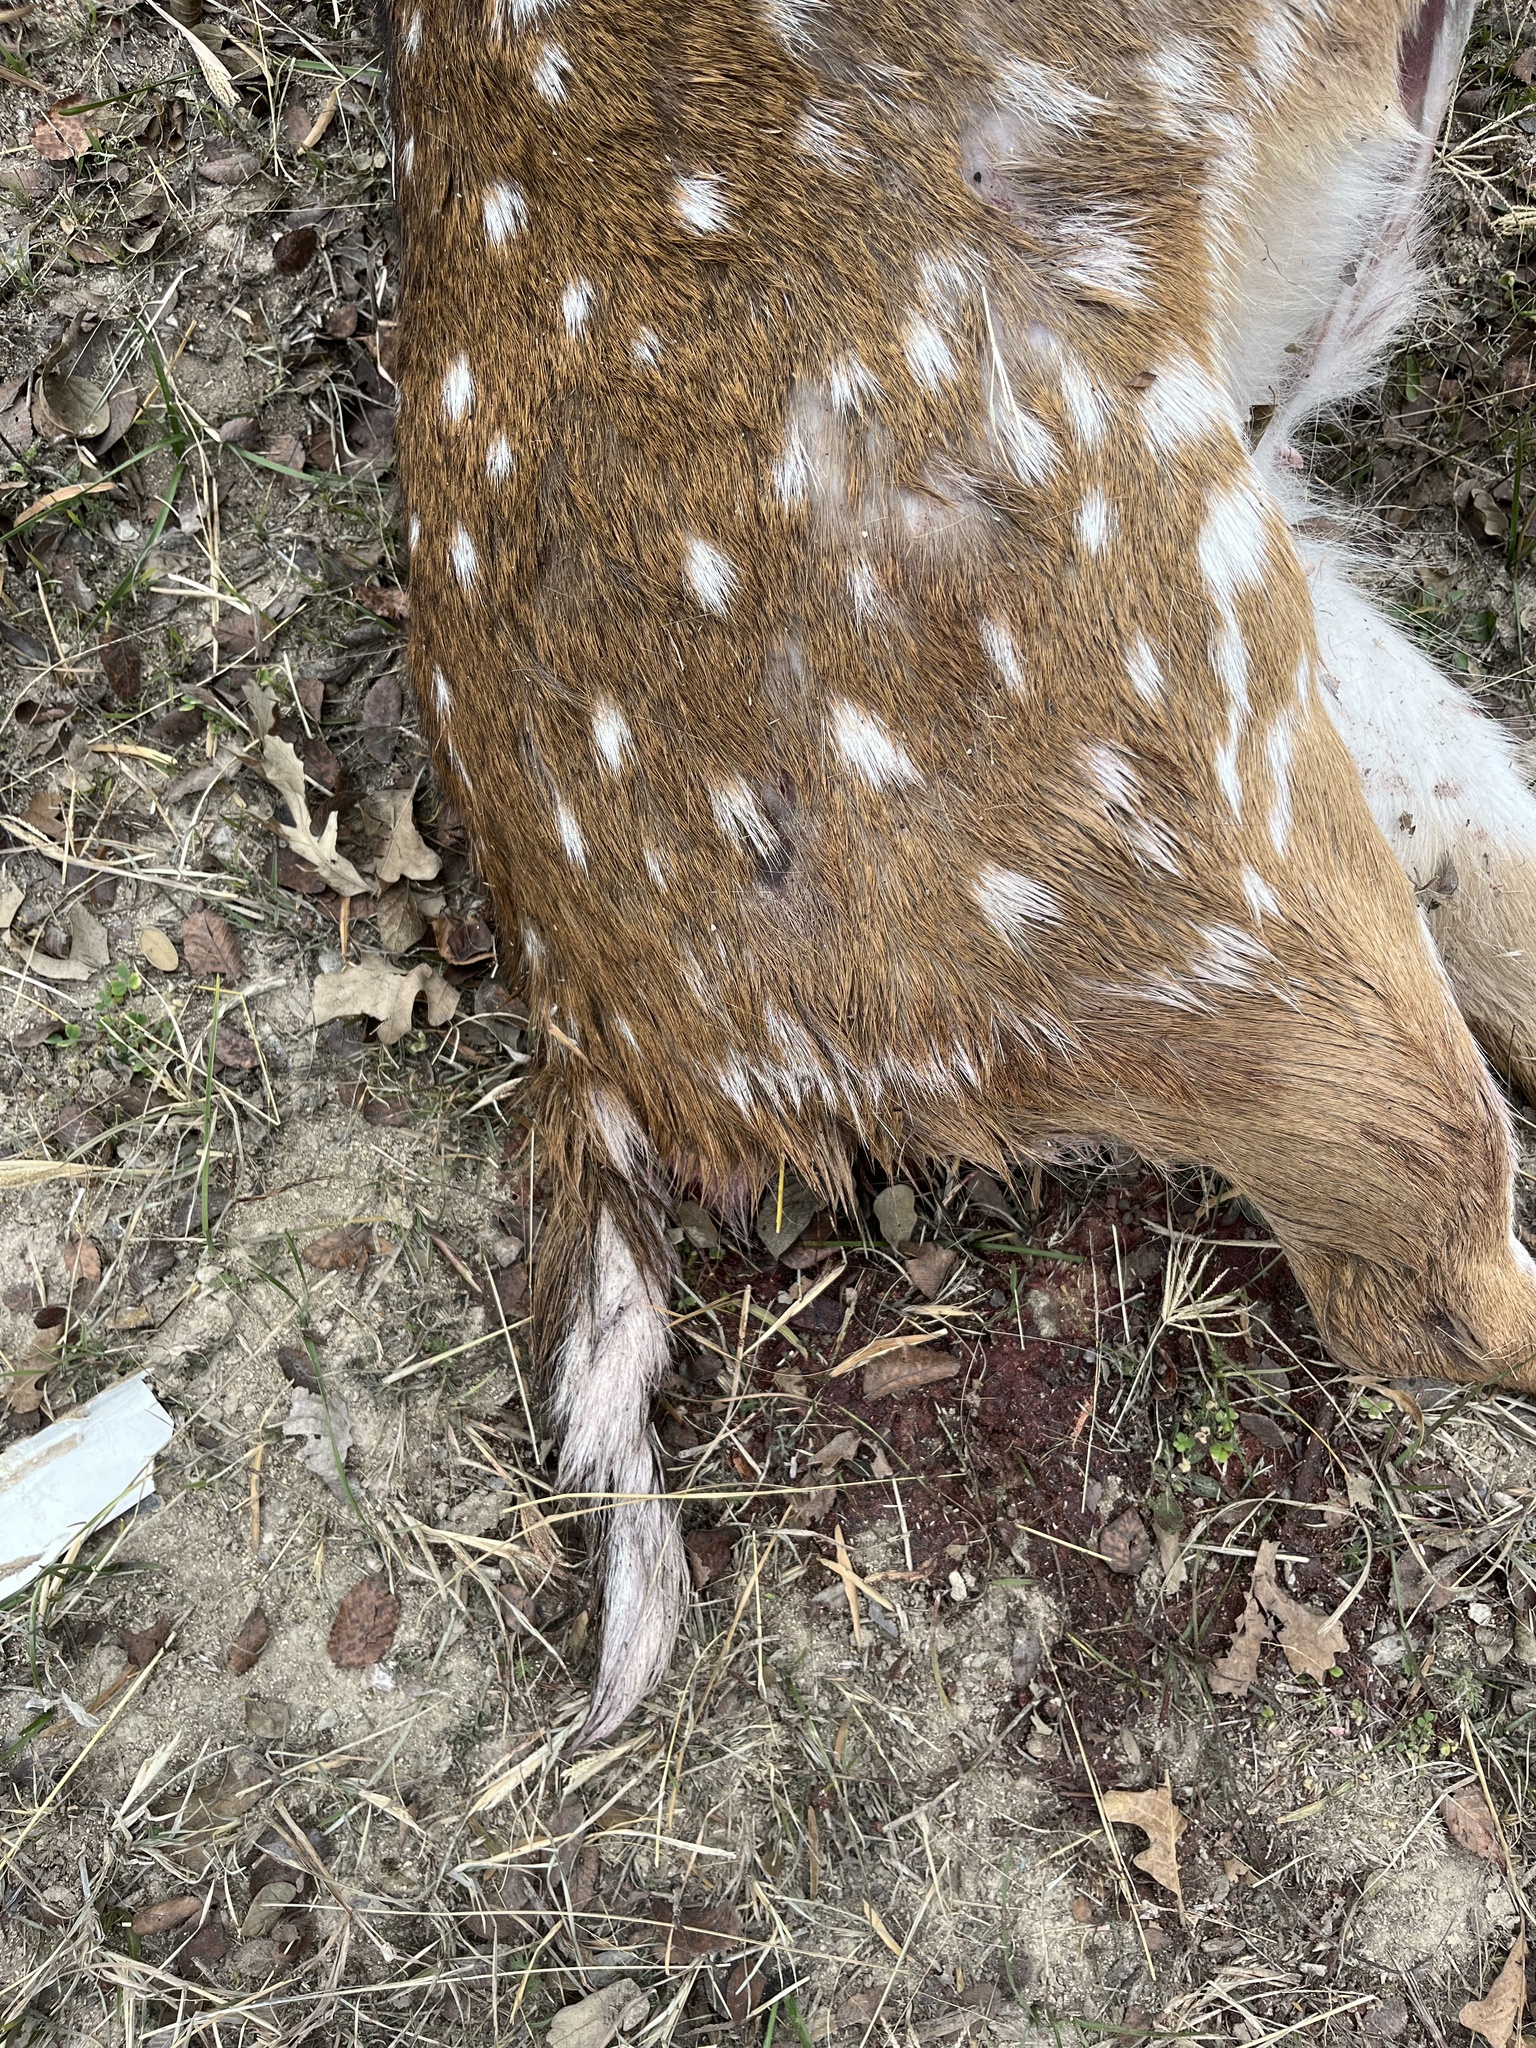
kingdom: Animalia
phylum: Chordata
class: Mammalia
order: Artiodactyla
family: Cervidae
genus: Axis
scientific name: Axis axis
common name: Chital
